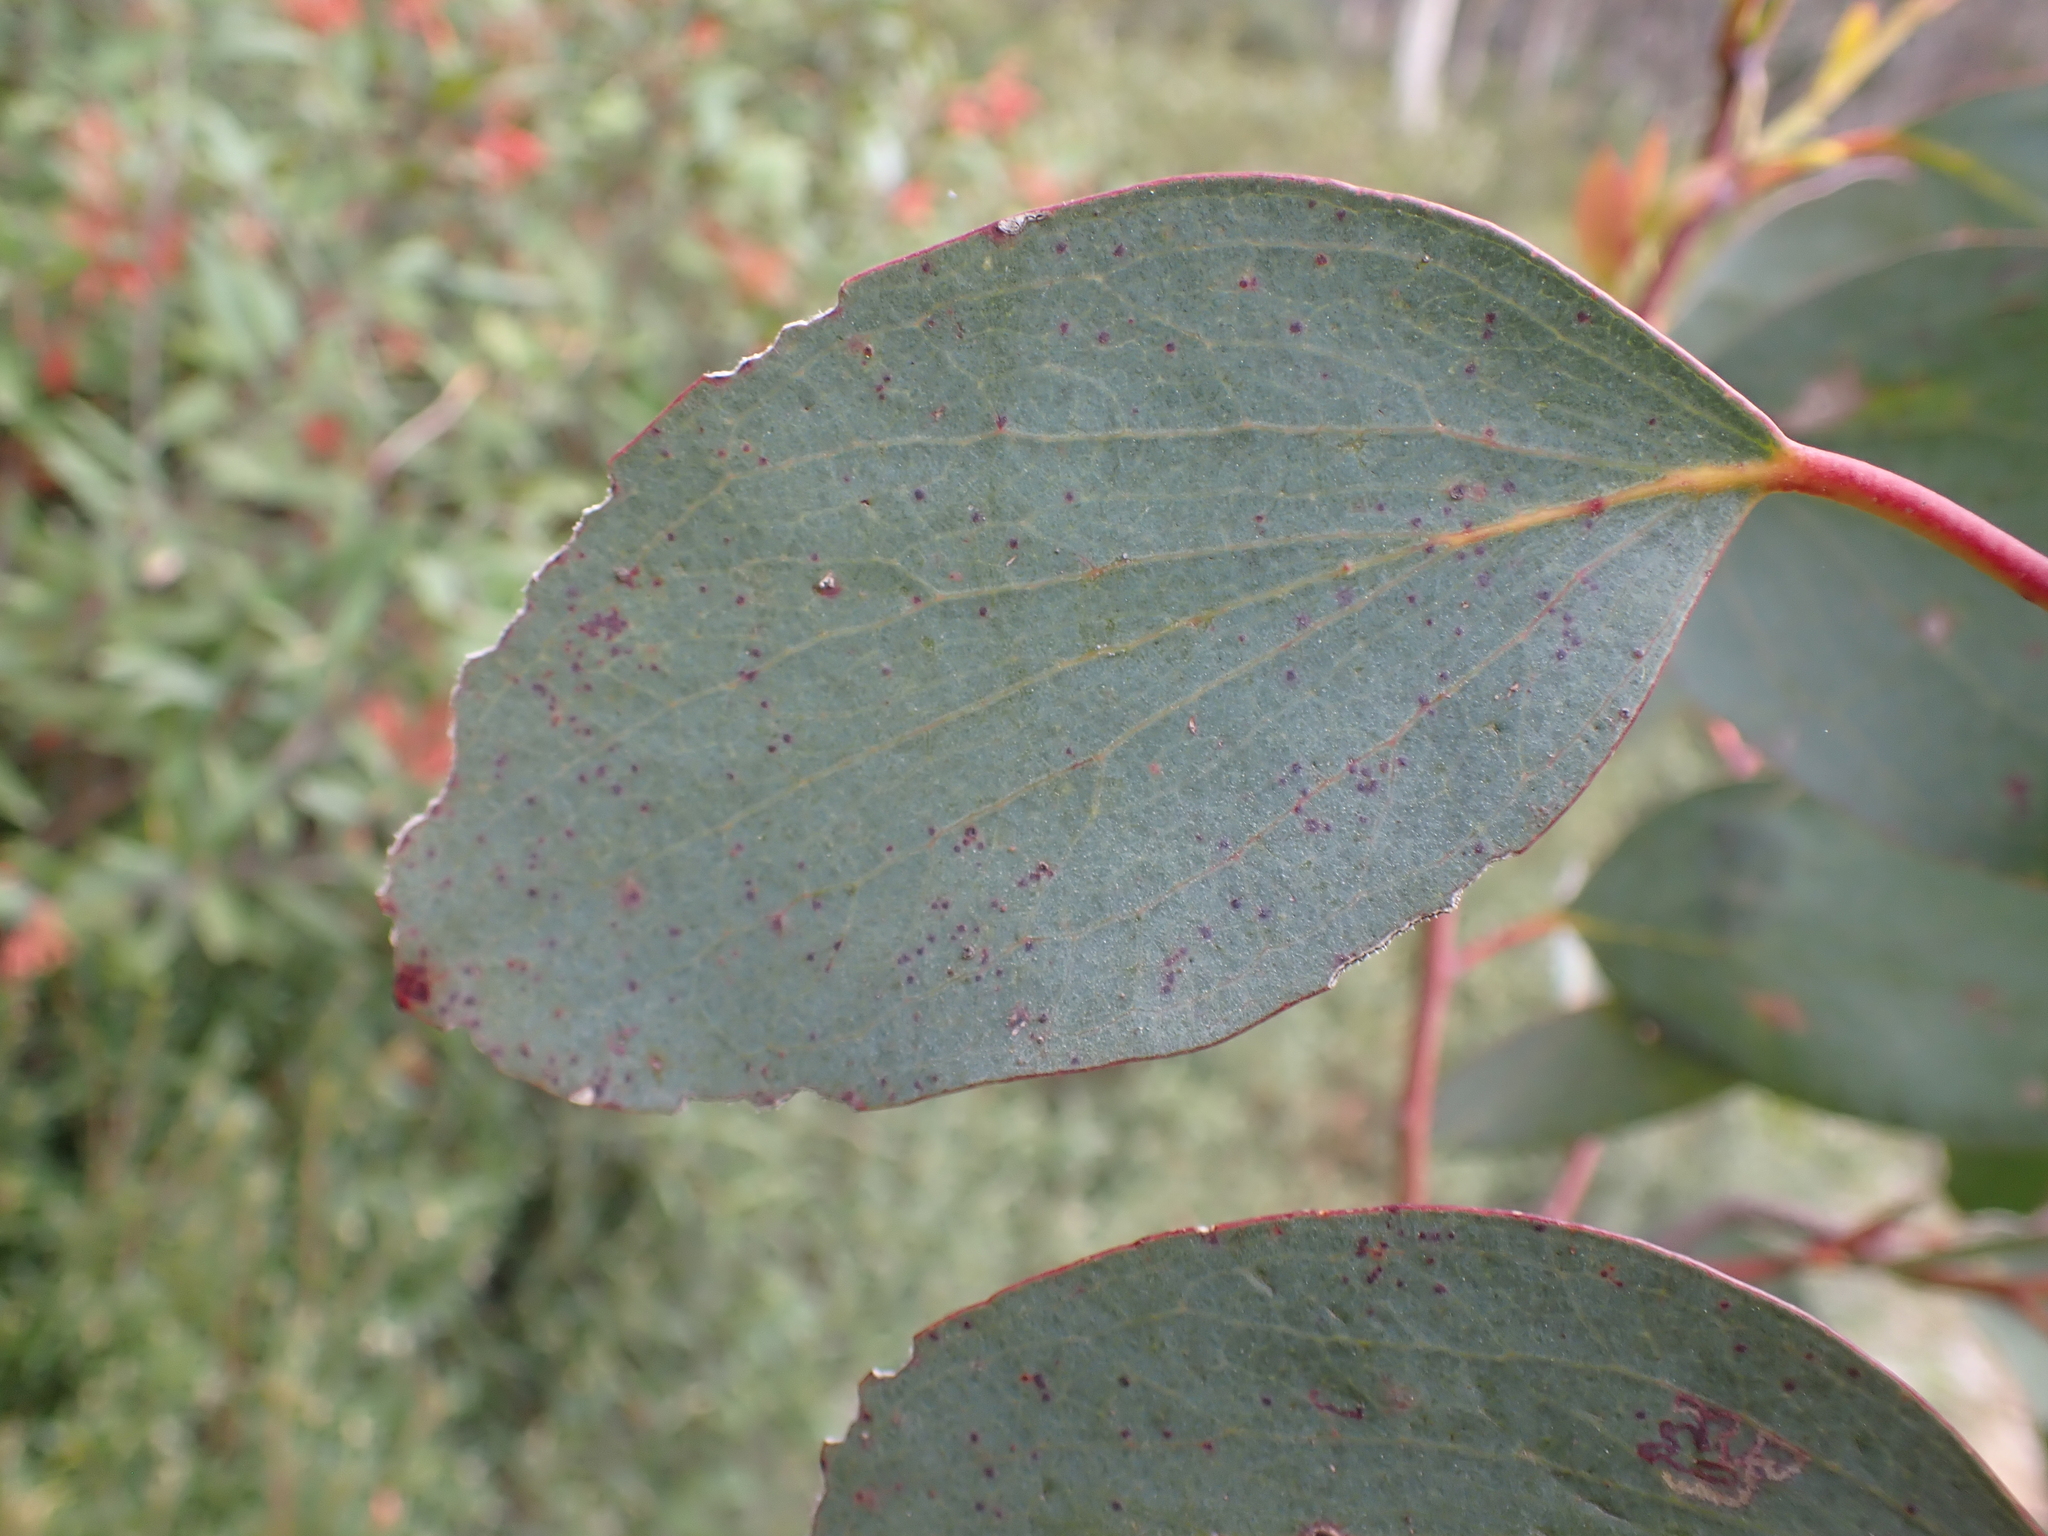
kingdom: Plantae
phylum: Tracheophyta
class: Magnoliopsida
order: Myrtales
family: Myrtaceae
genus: Eucalyptus
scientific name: Eucalyptus pauciflora
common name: Snow gum
